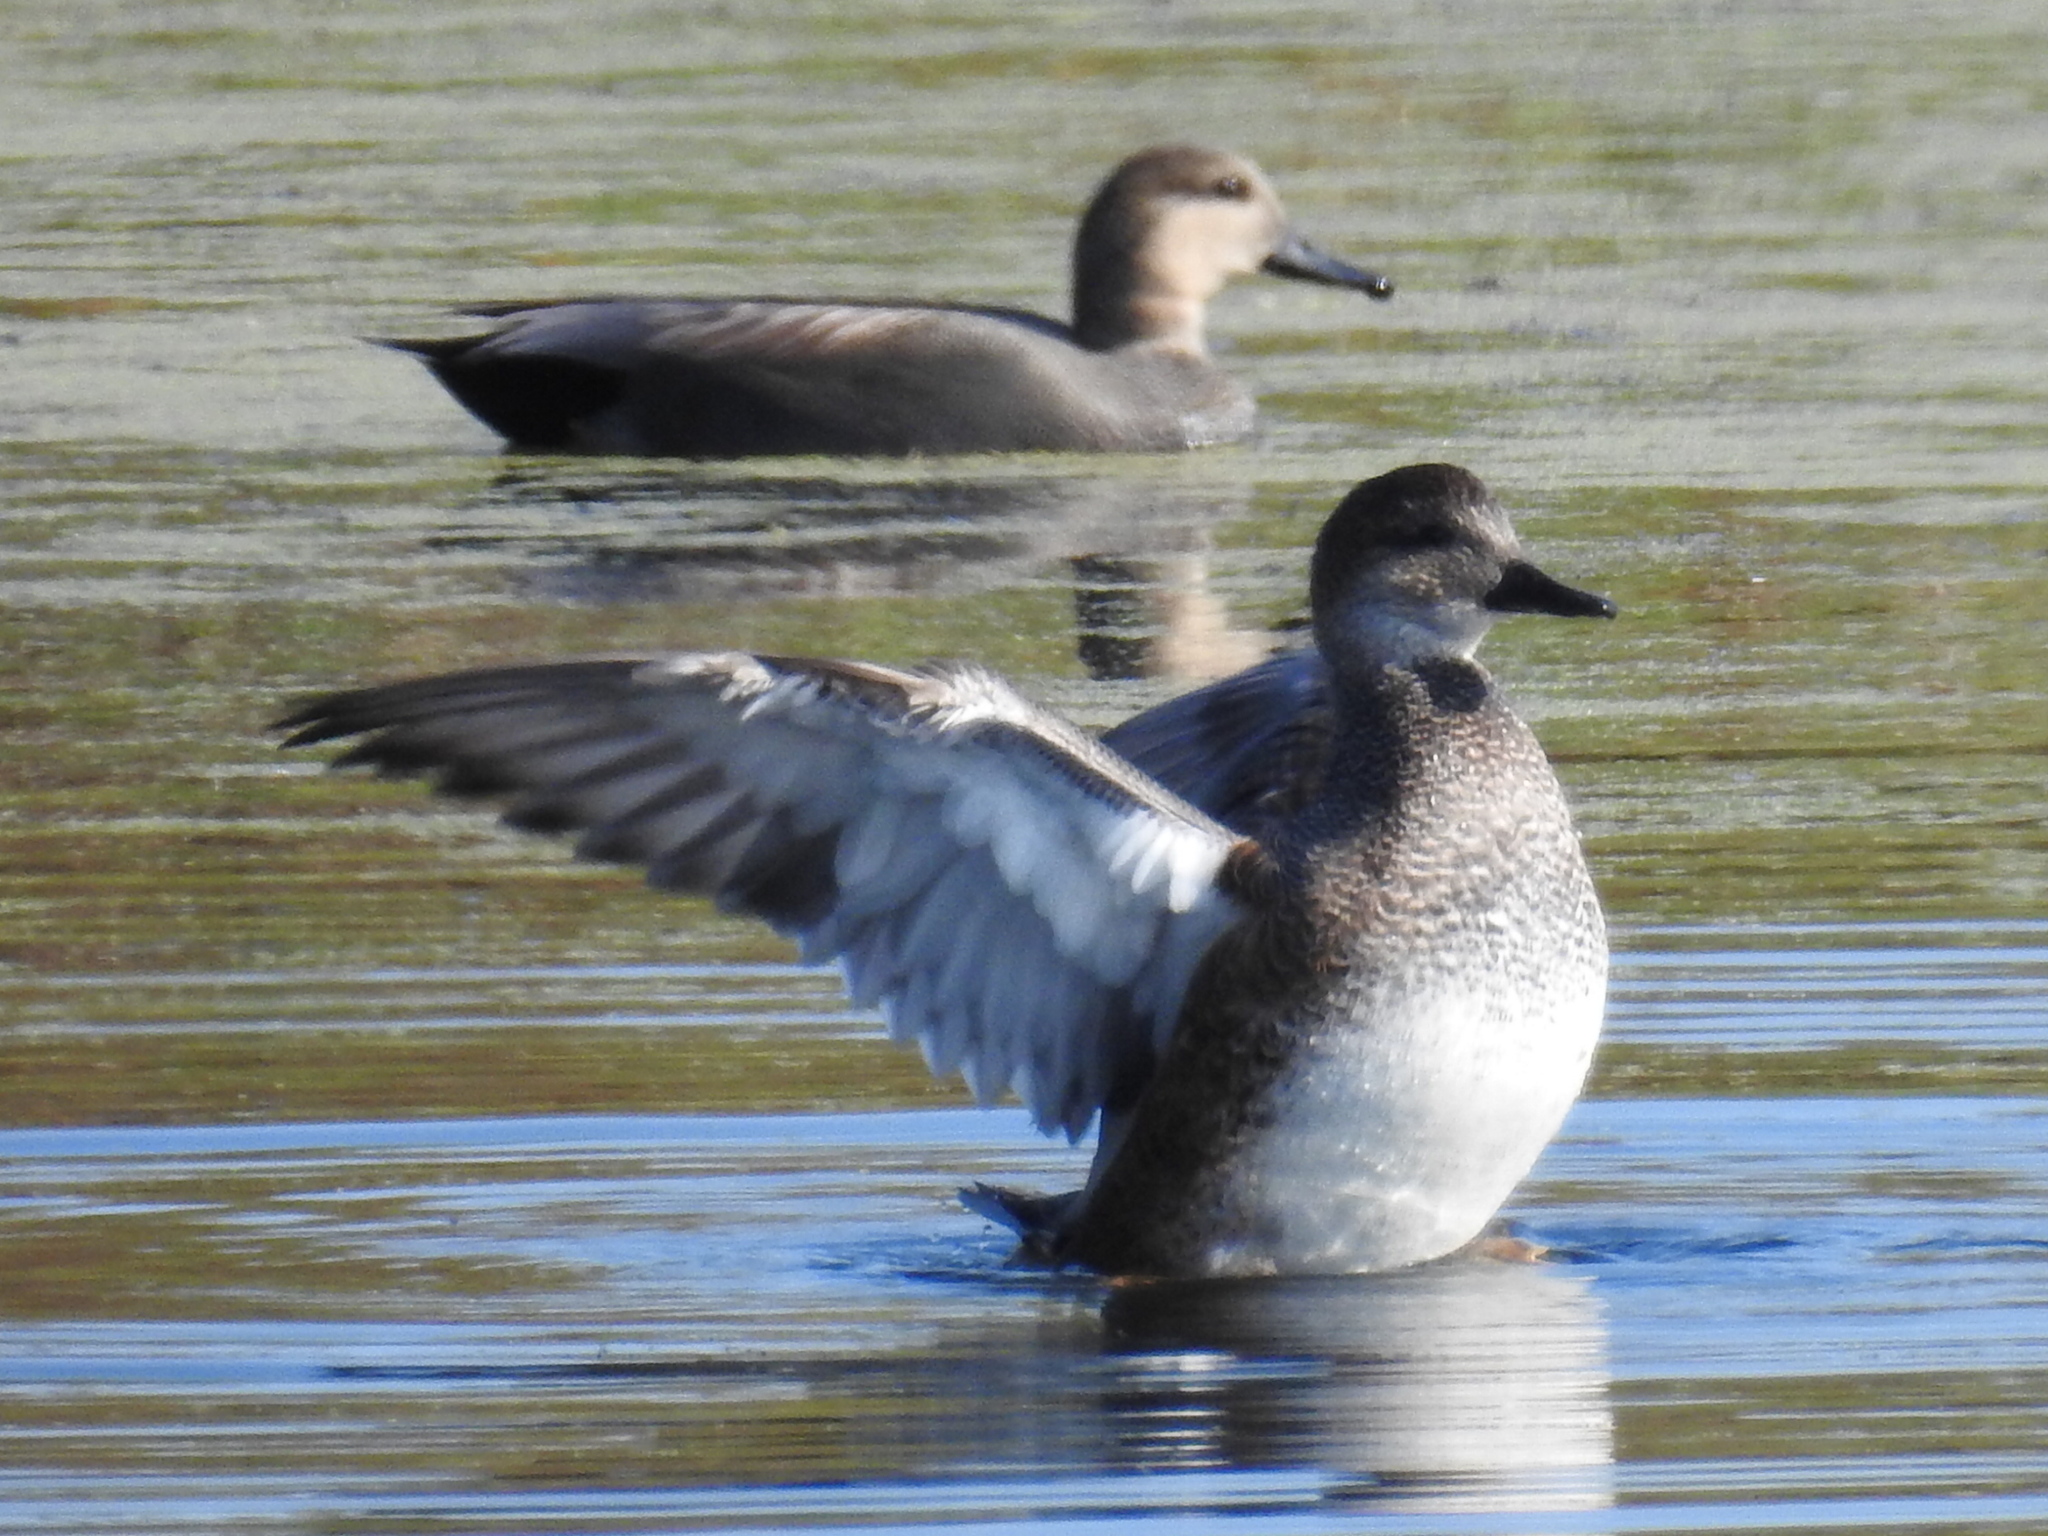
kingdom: Animalia
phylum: Chordata
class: Aves
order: Anseriformes
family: Anatidae
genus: Mareca
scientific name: Mareca strepera
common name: Gadwall
